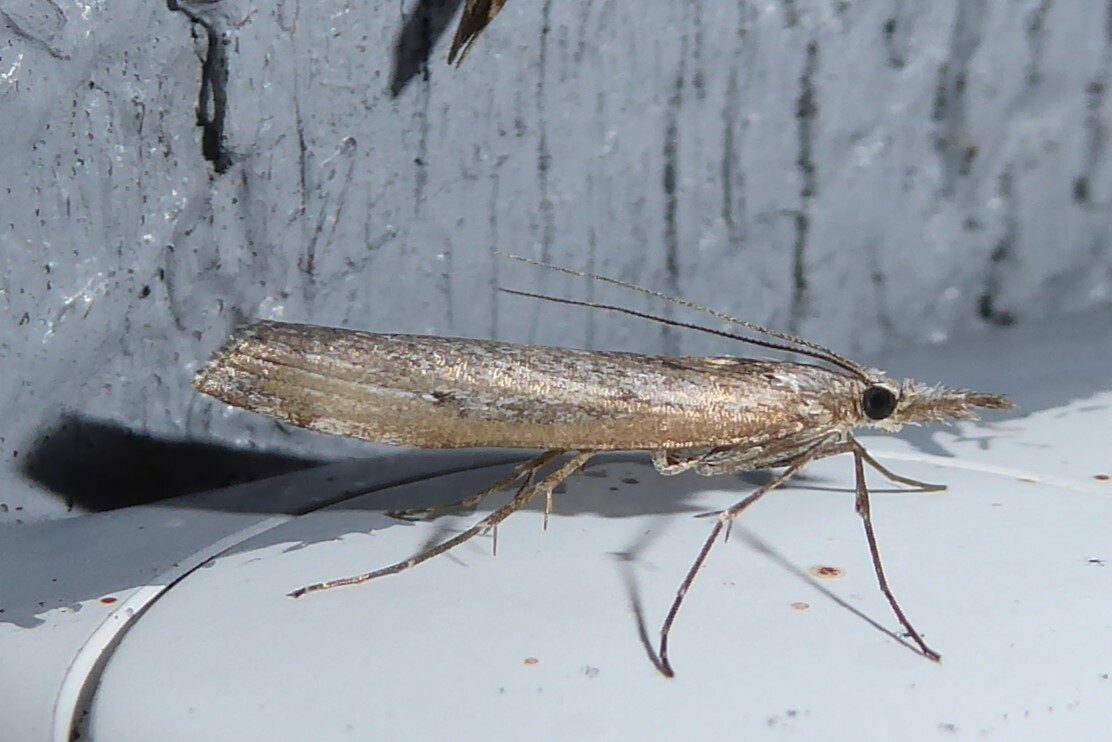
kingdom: Animalia
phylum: Arthropoda
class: Insecta
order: Lepidoptera
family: Crambidae
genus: Orocrambus
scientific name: Orocrambus cyclopicus
